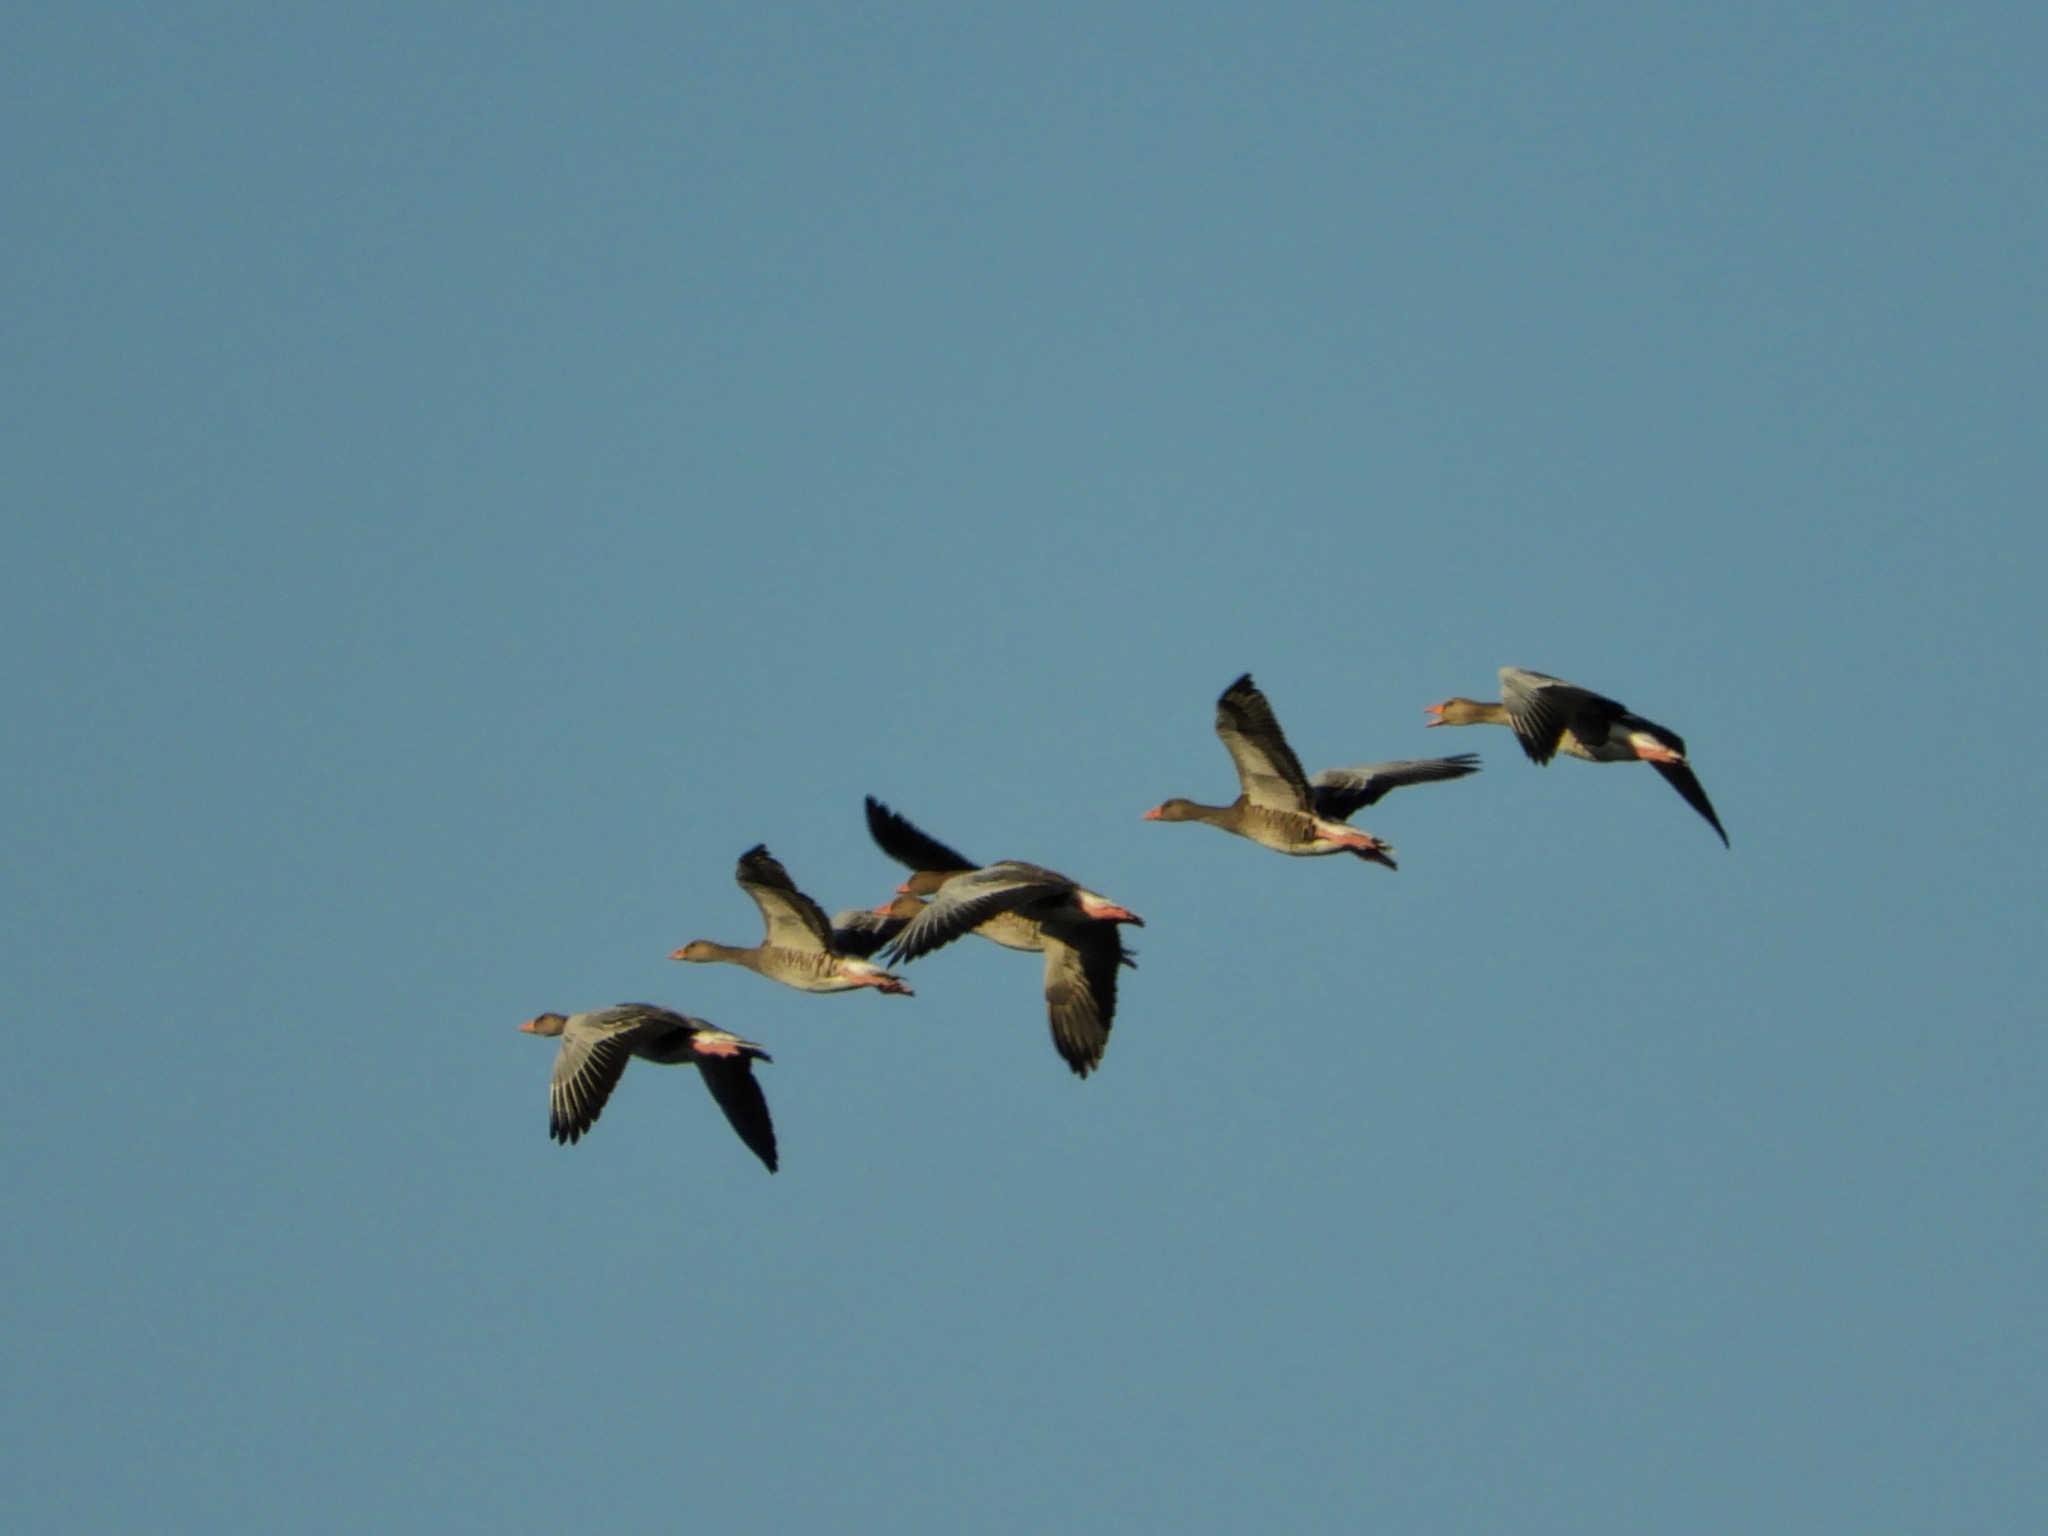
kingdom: Animalia
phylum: Chordata
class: Aves
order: Anseriformes
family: Anatidae
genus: Anser
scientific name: Anser anser
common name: Greylag goose
